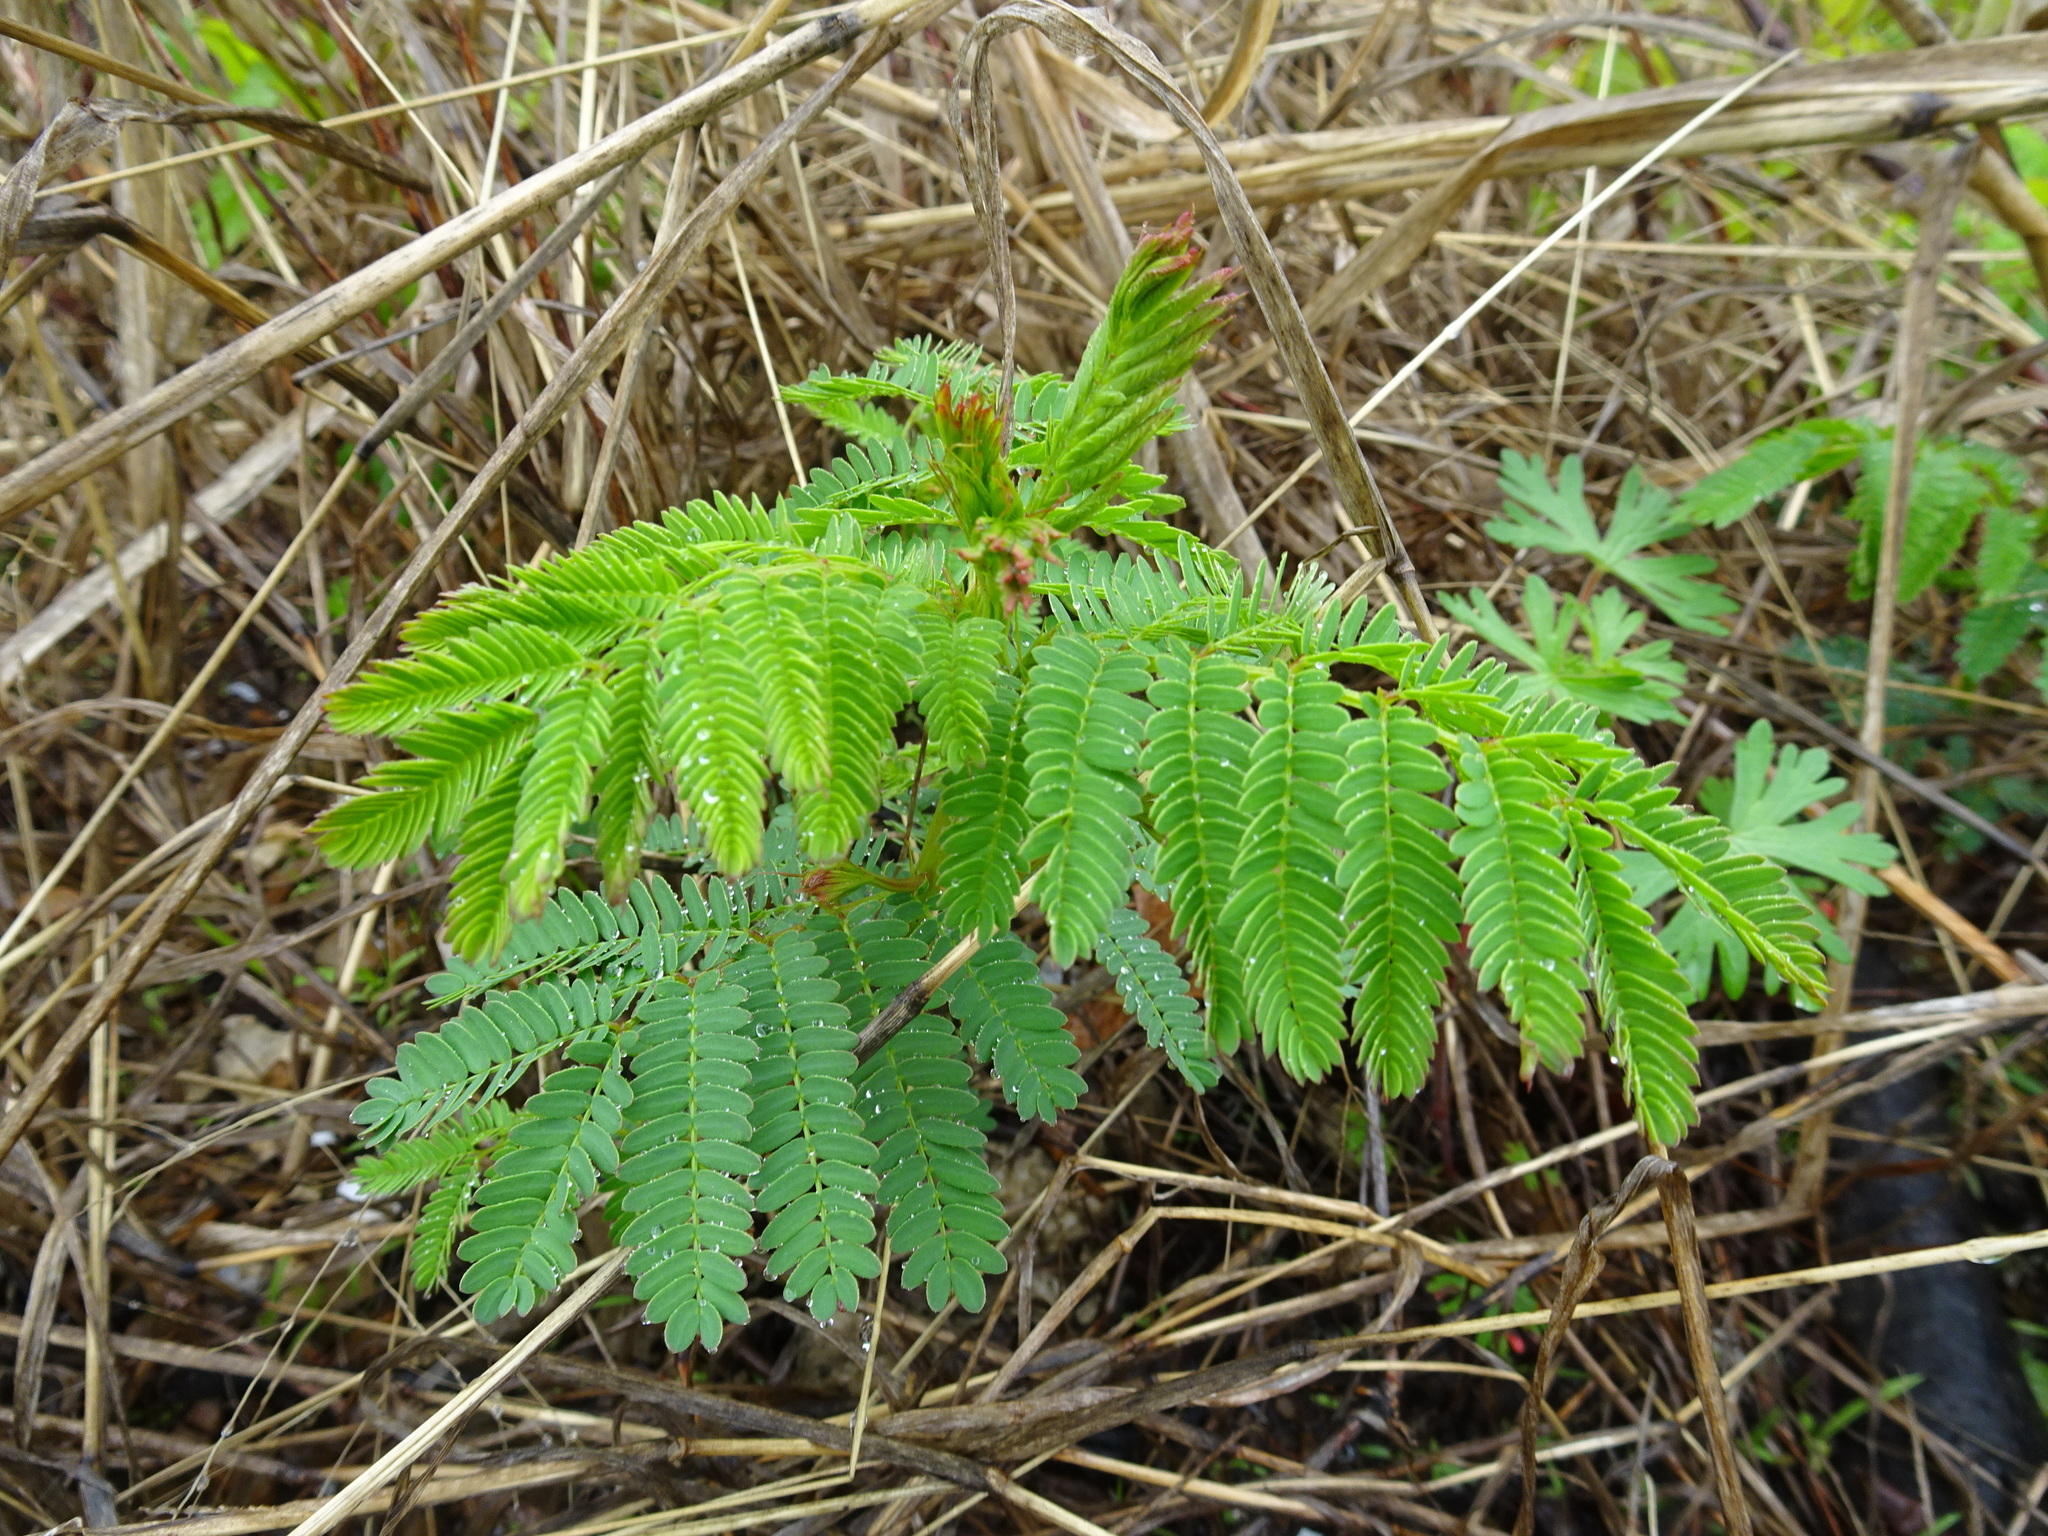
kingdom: Plantae
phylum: Tracheophyta
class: Magnoliopsida
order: Fabales
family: Fabaceae
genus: Desmanthus
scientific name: Desmanthus illinoensis
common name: Illinois bundle-flower
